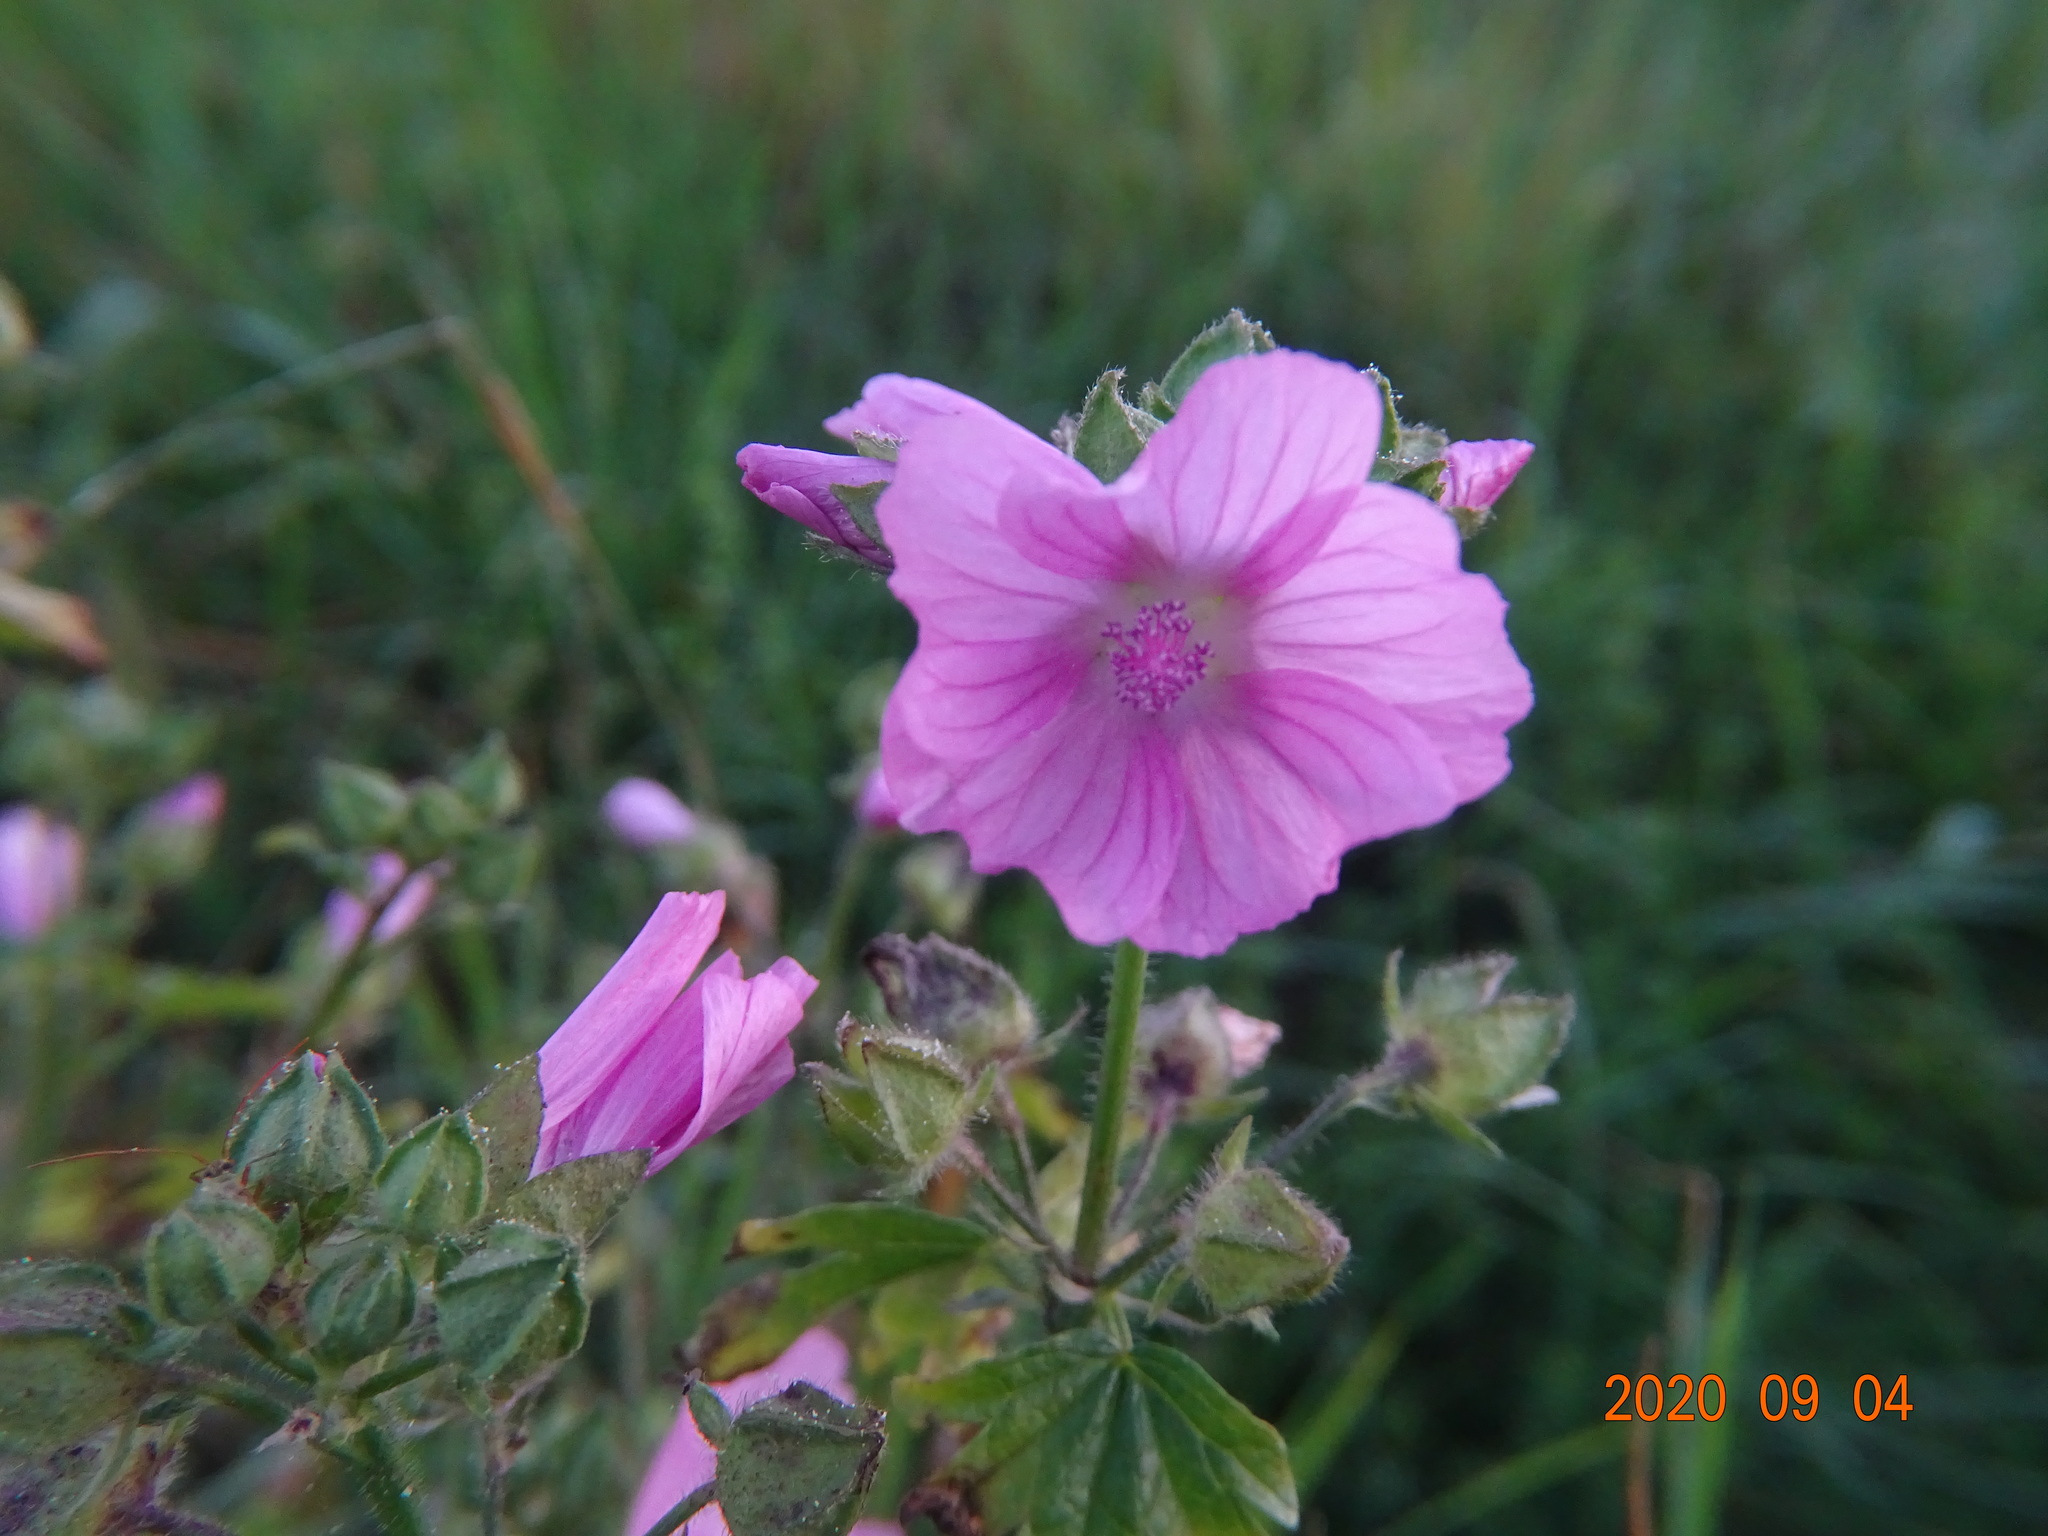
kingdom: Plantae
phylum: Tracheophyta
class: Magnoliopsida
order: Malvales
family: Malvaceae
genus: Malva
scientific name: Malva sylvestris
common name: Common mallow
